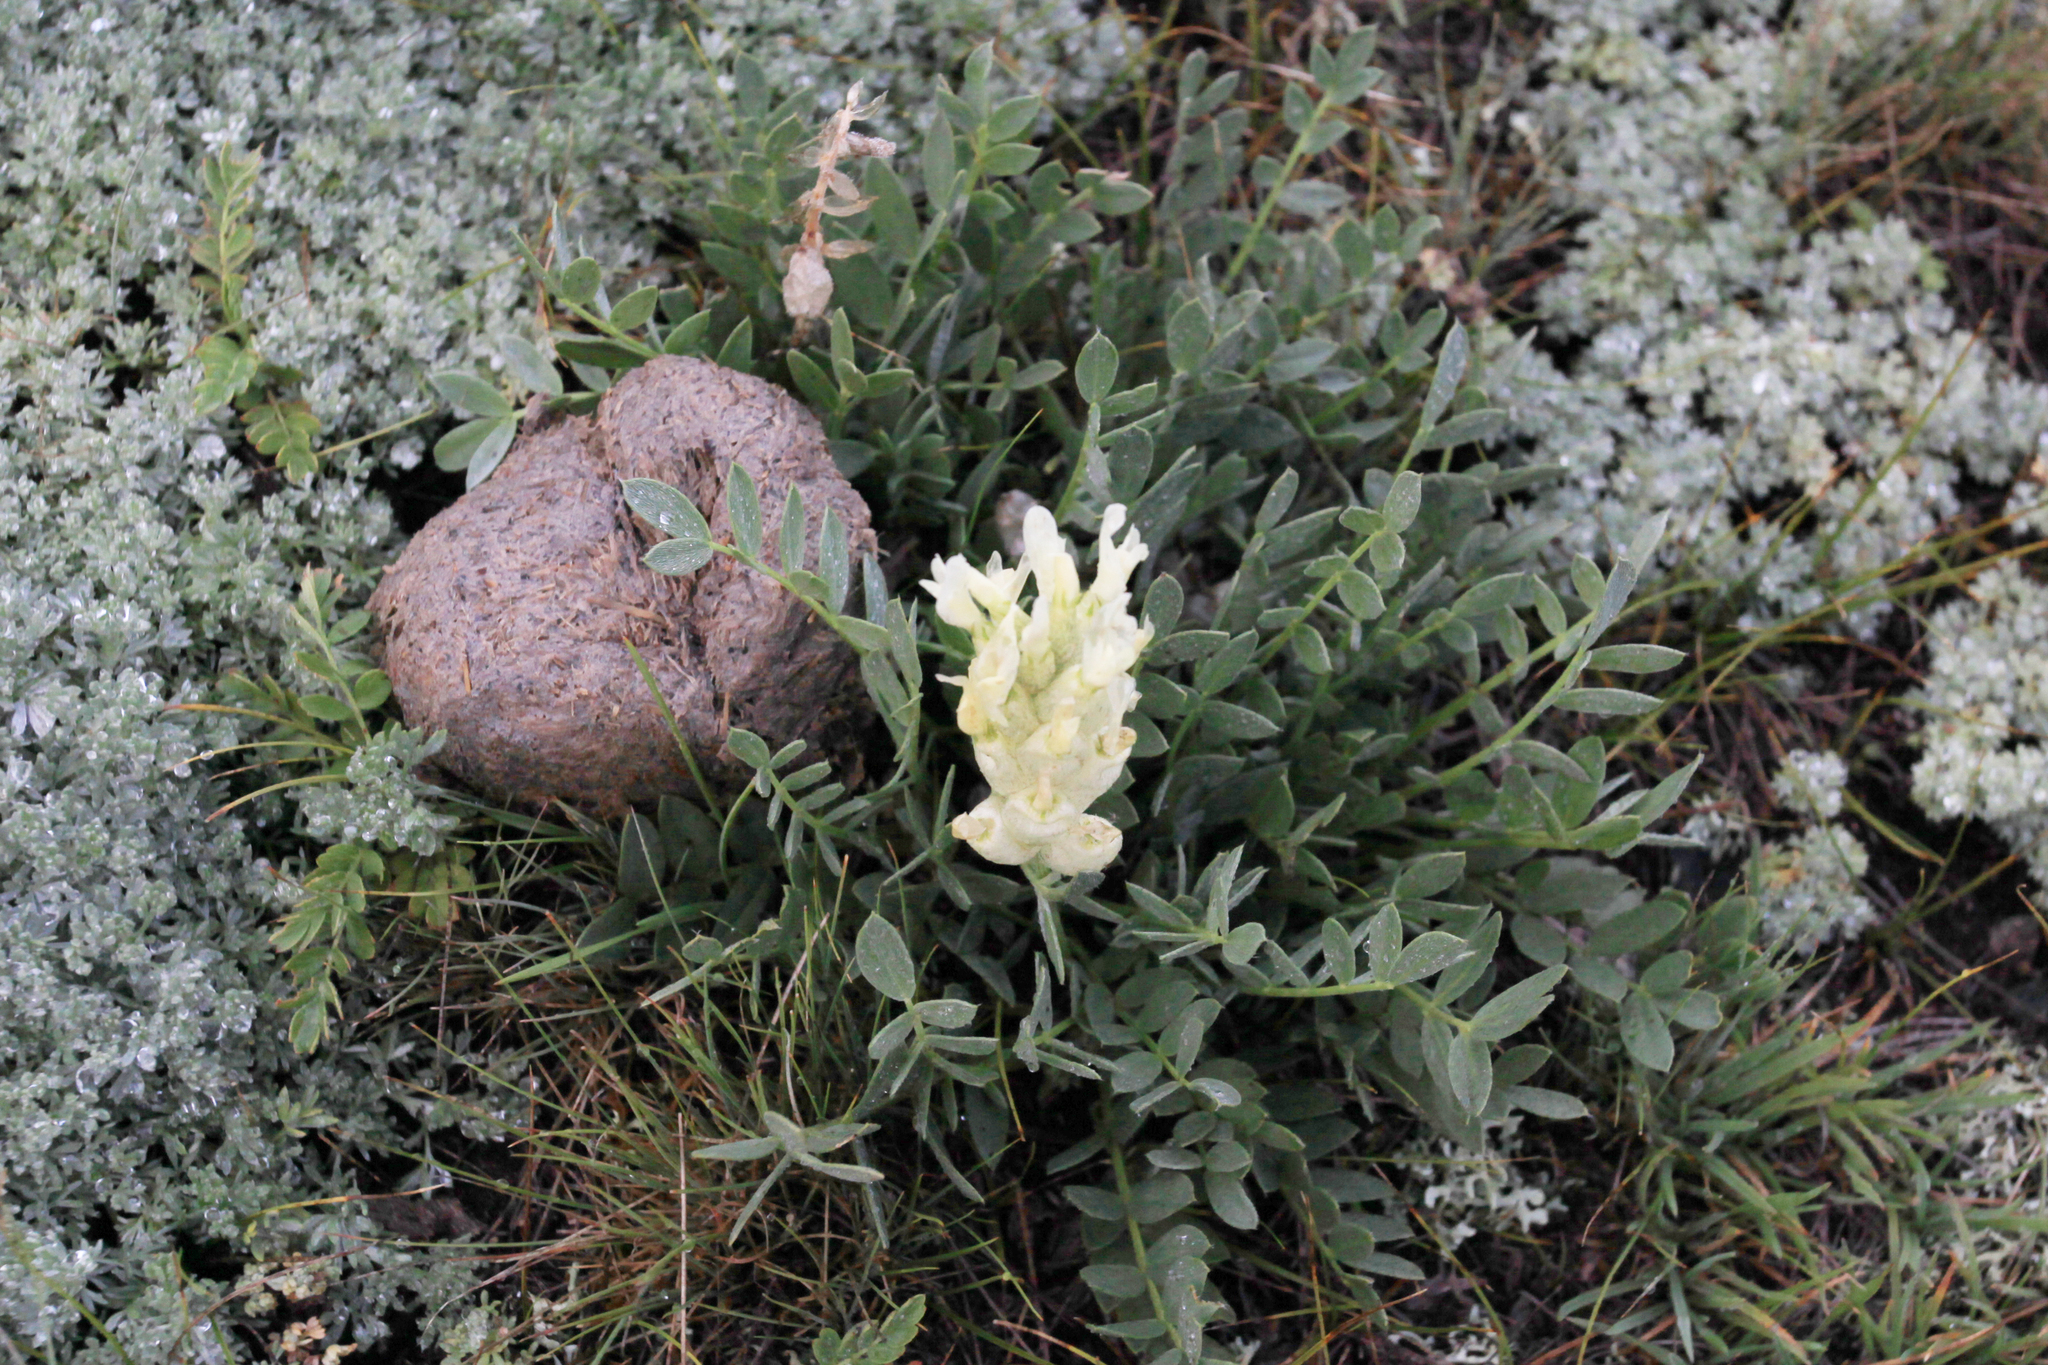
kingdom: Plantae
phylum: Tracheophyta
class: Magnoliopsida
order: Fabales
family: Fabaceae
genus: Astragalus
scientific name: Astragalus dilutus
